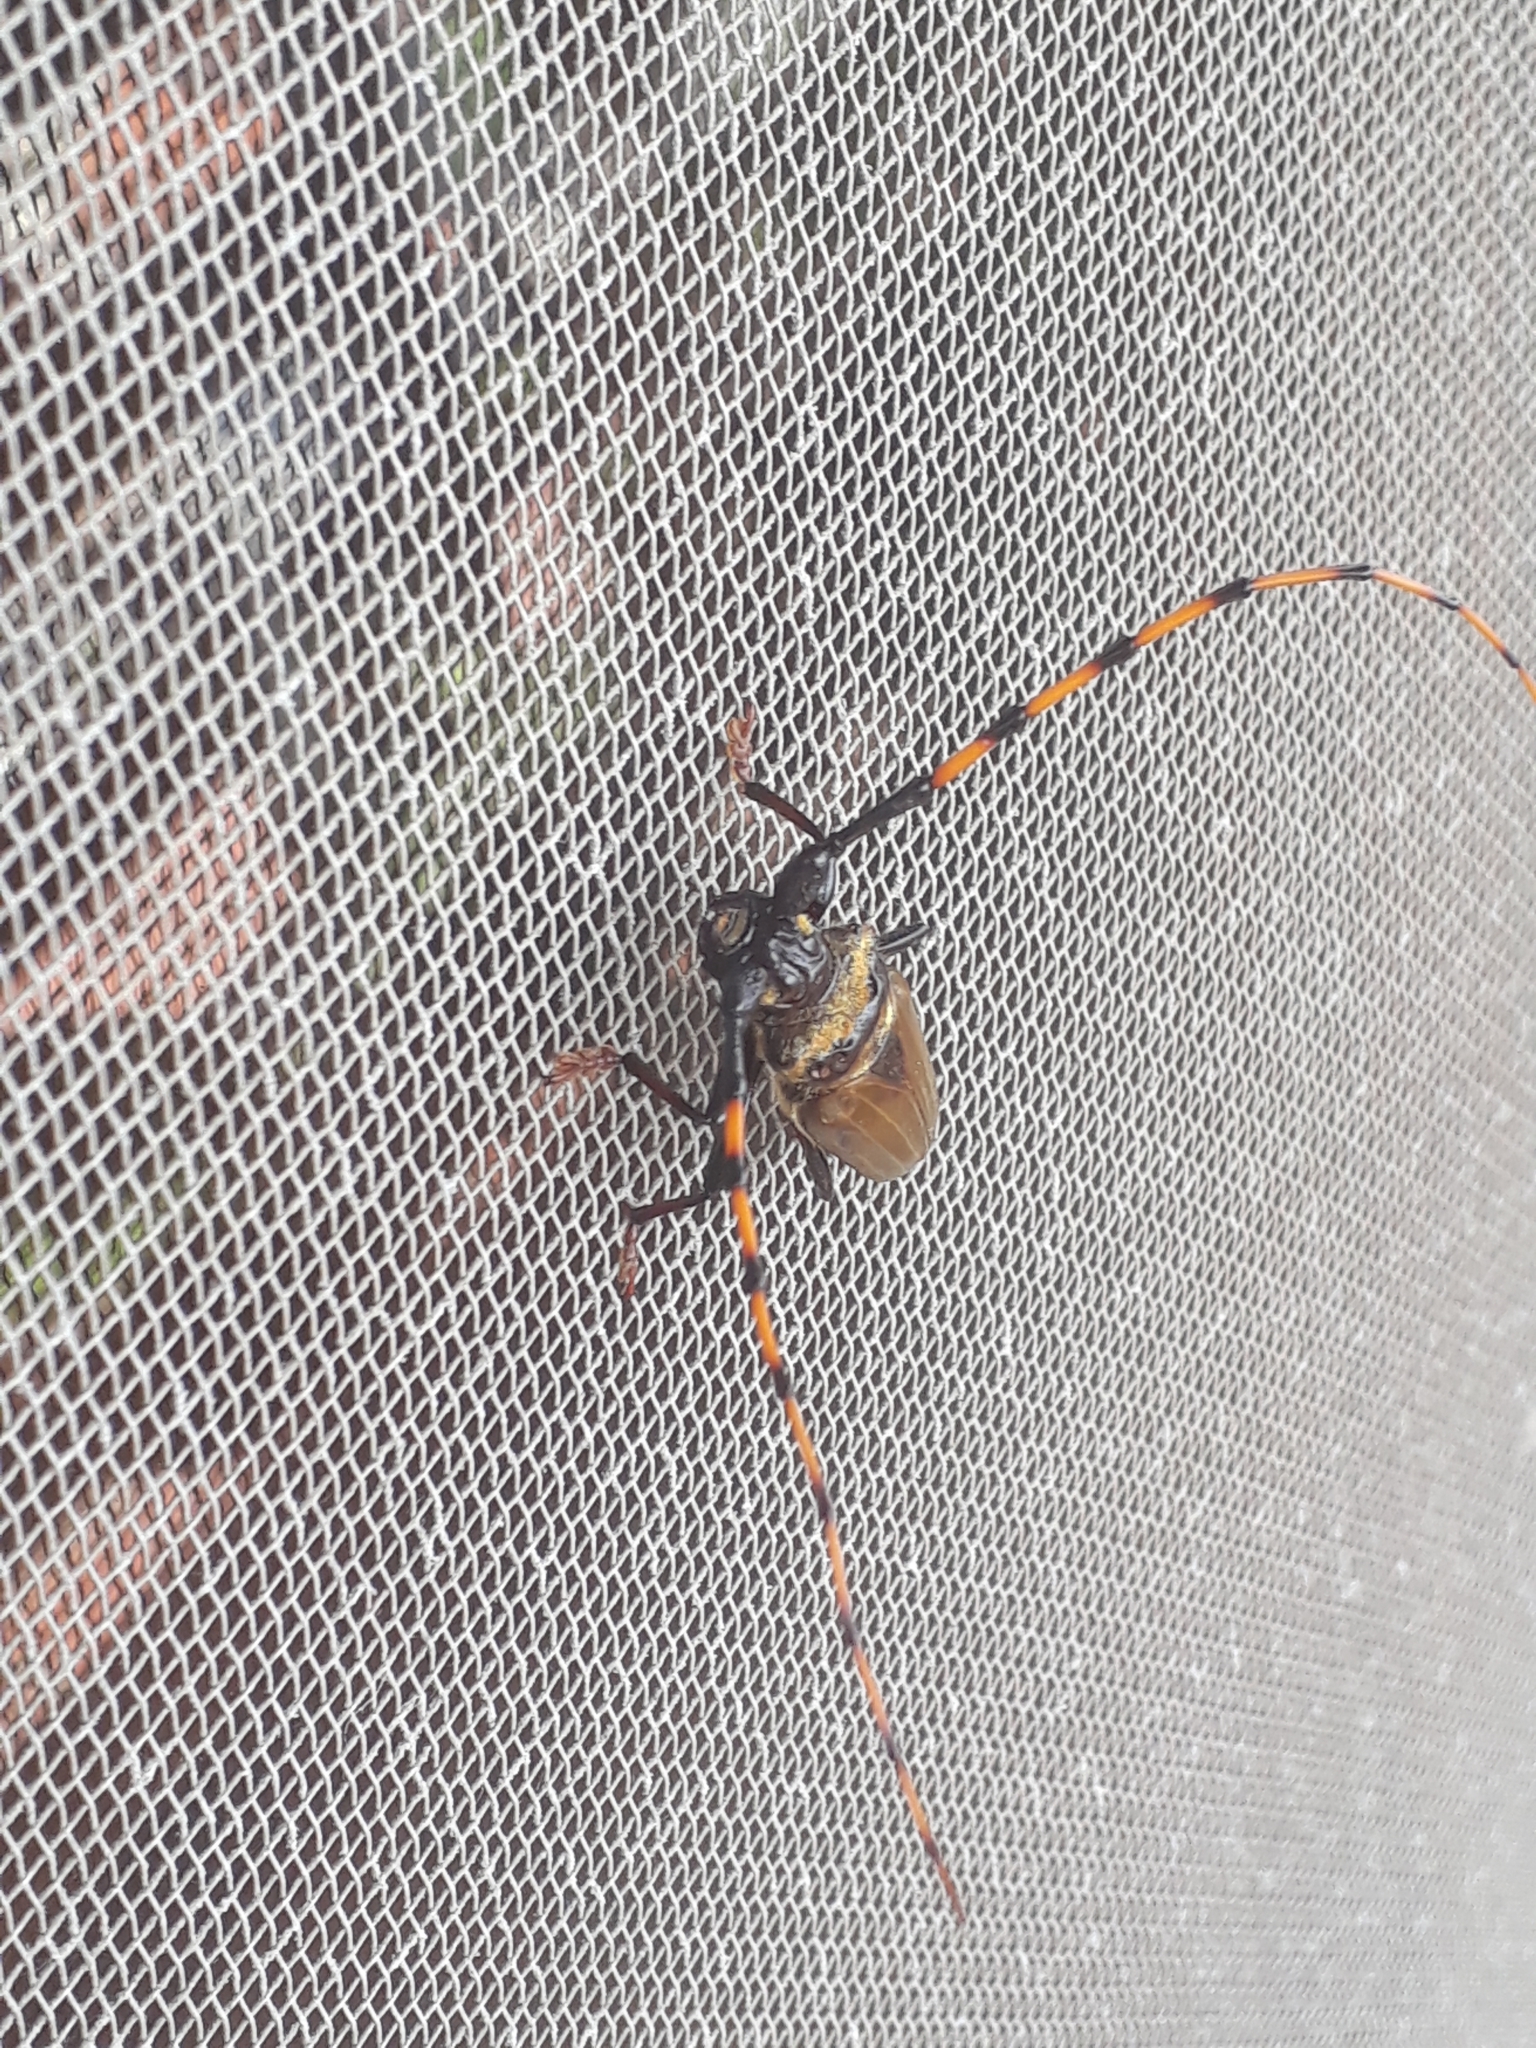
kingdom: Animalia
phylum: Arthropoda
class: Insecta
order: Coleoptera
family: Cerambycidae
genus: Retrachydes
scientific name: Retrachydes thoracicus
